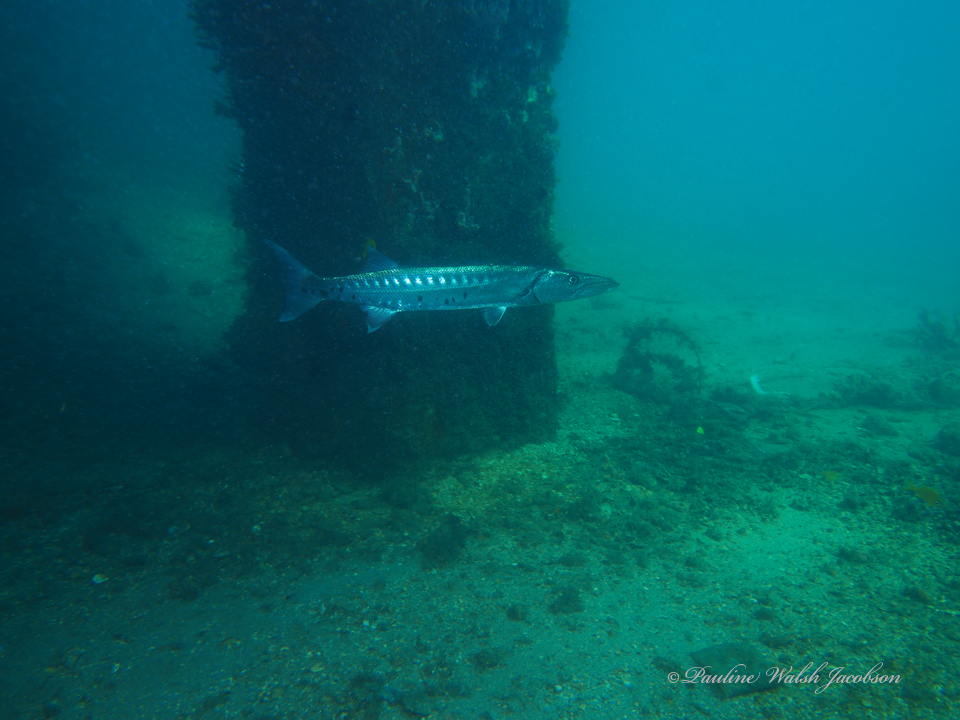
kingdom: Animalia
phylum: Chordata
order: Perciformes
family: Sphyraenidae
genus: Sphyraena
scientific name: Sphyraena barracuda
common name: Great barracuda
